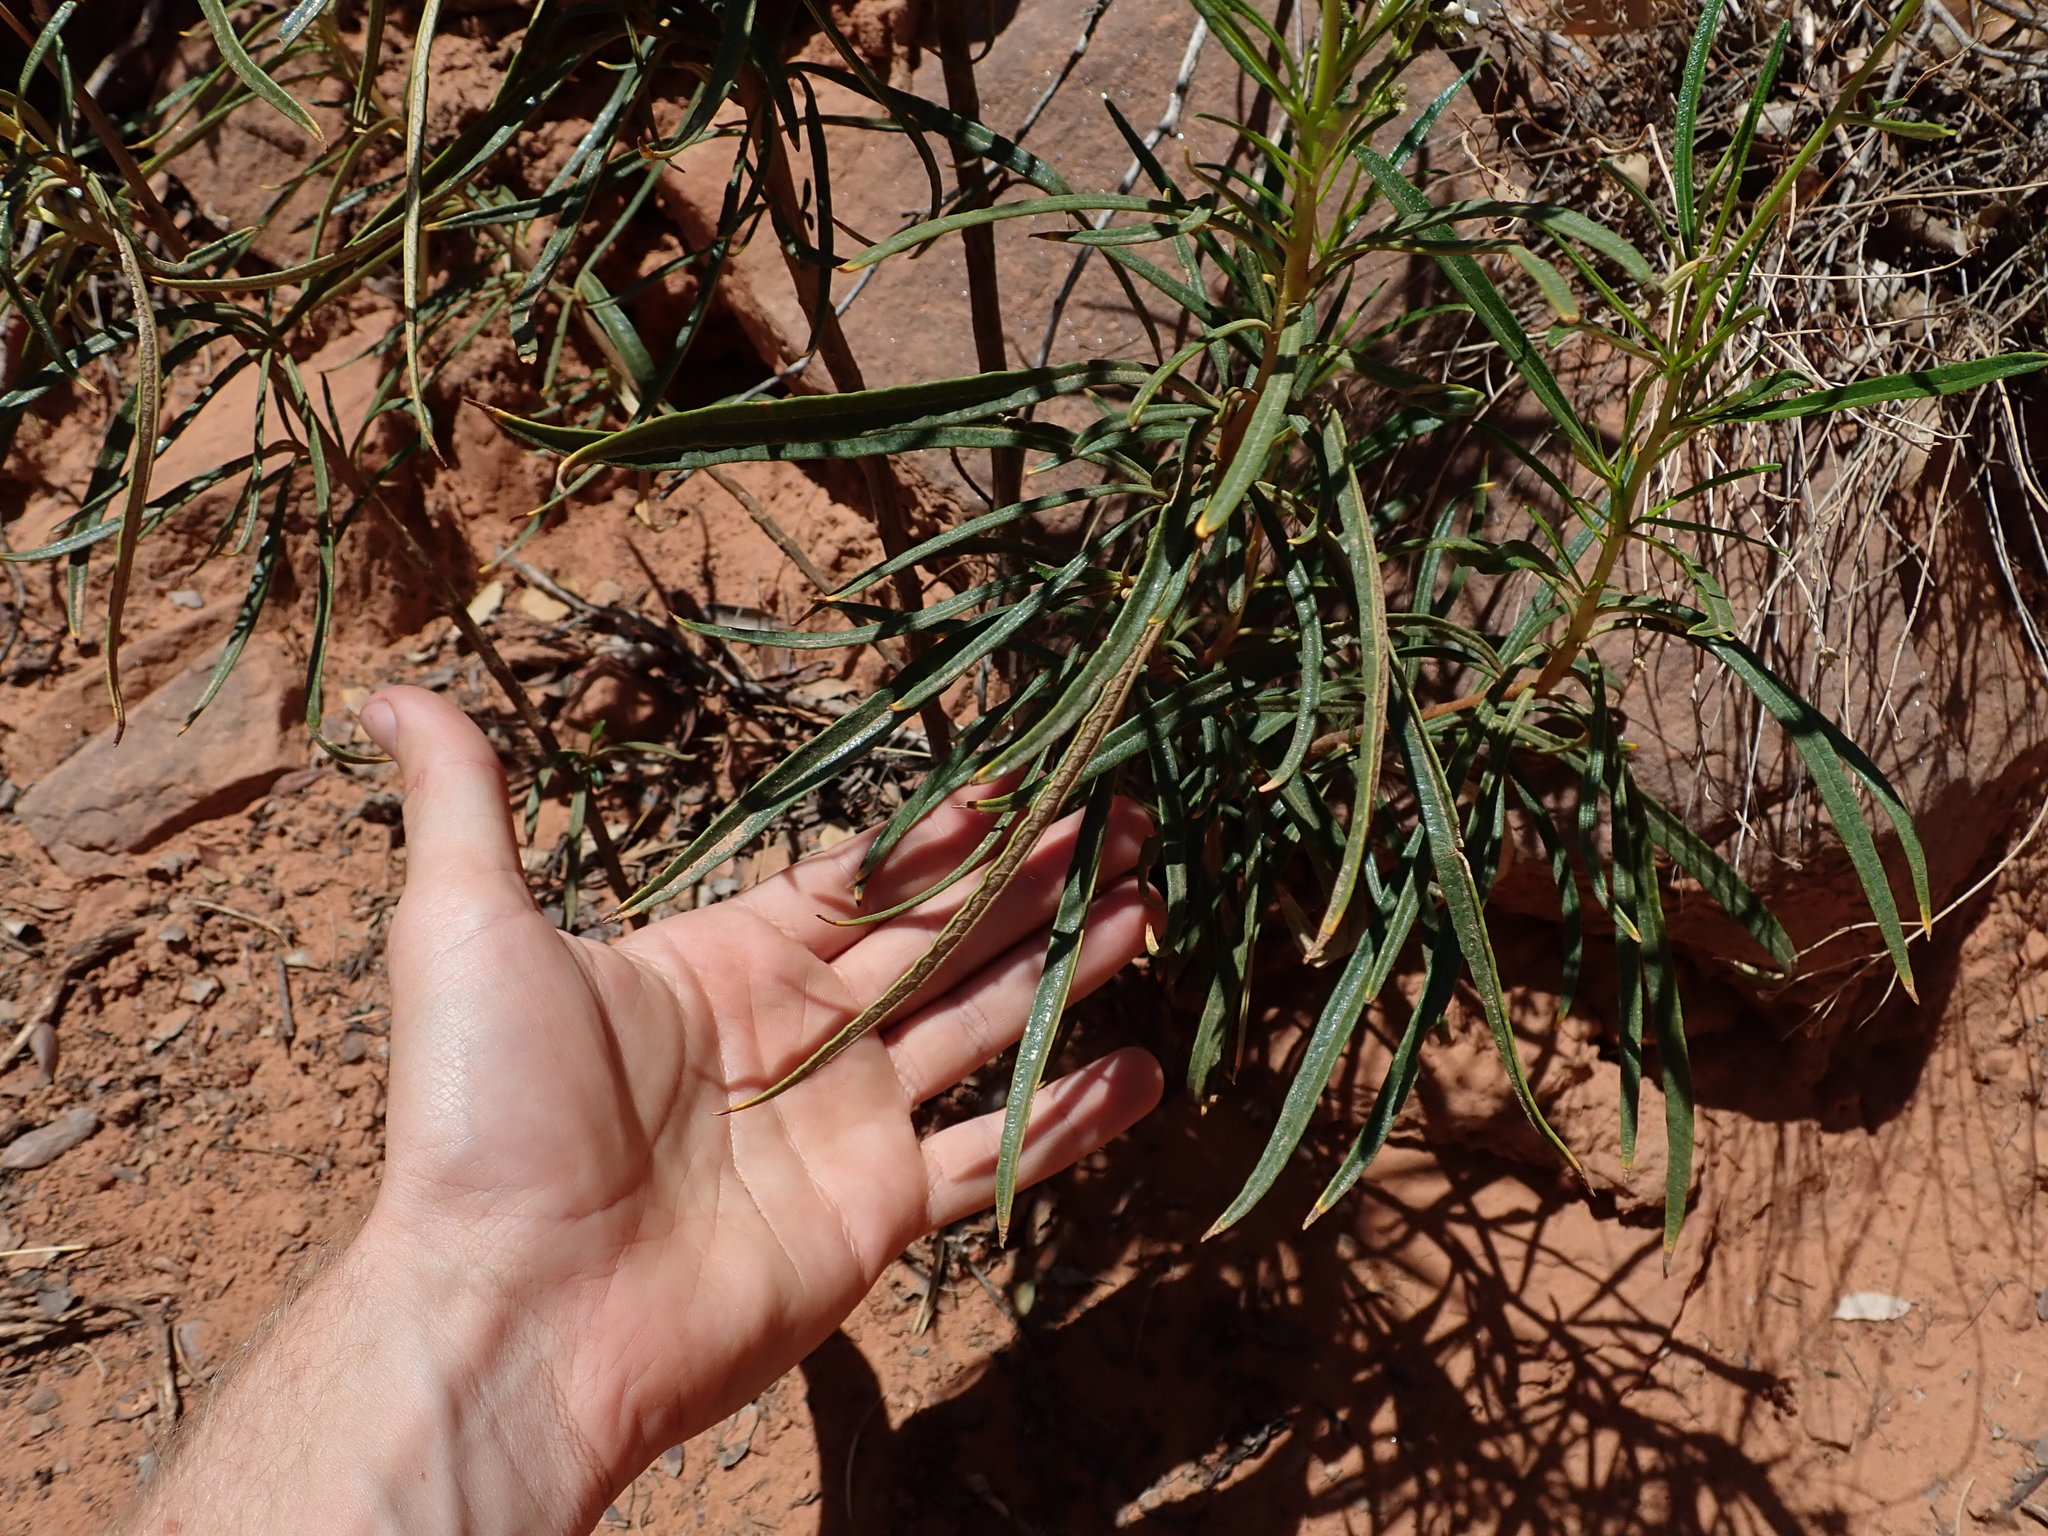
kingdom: Plantae
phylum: Tracheophyta
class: Magnoliopsida
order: Boraginales
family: Namaceae
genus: Eriodictyon
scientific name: Eriodictyon angustifolium
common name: Narrow-leaf yerba santa
